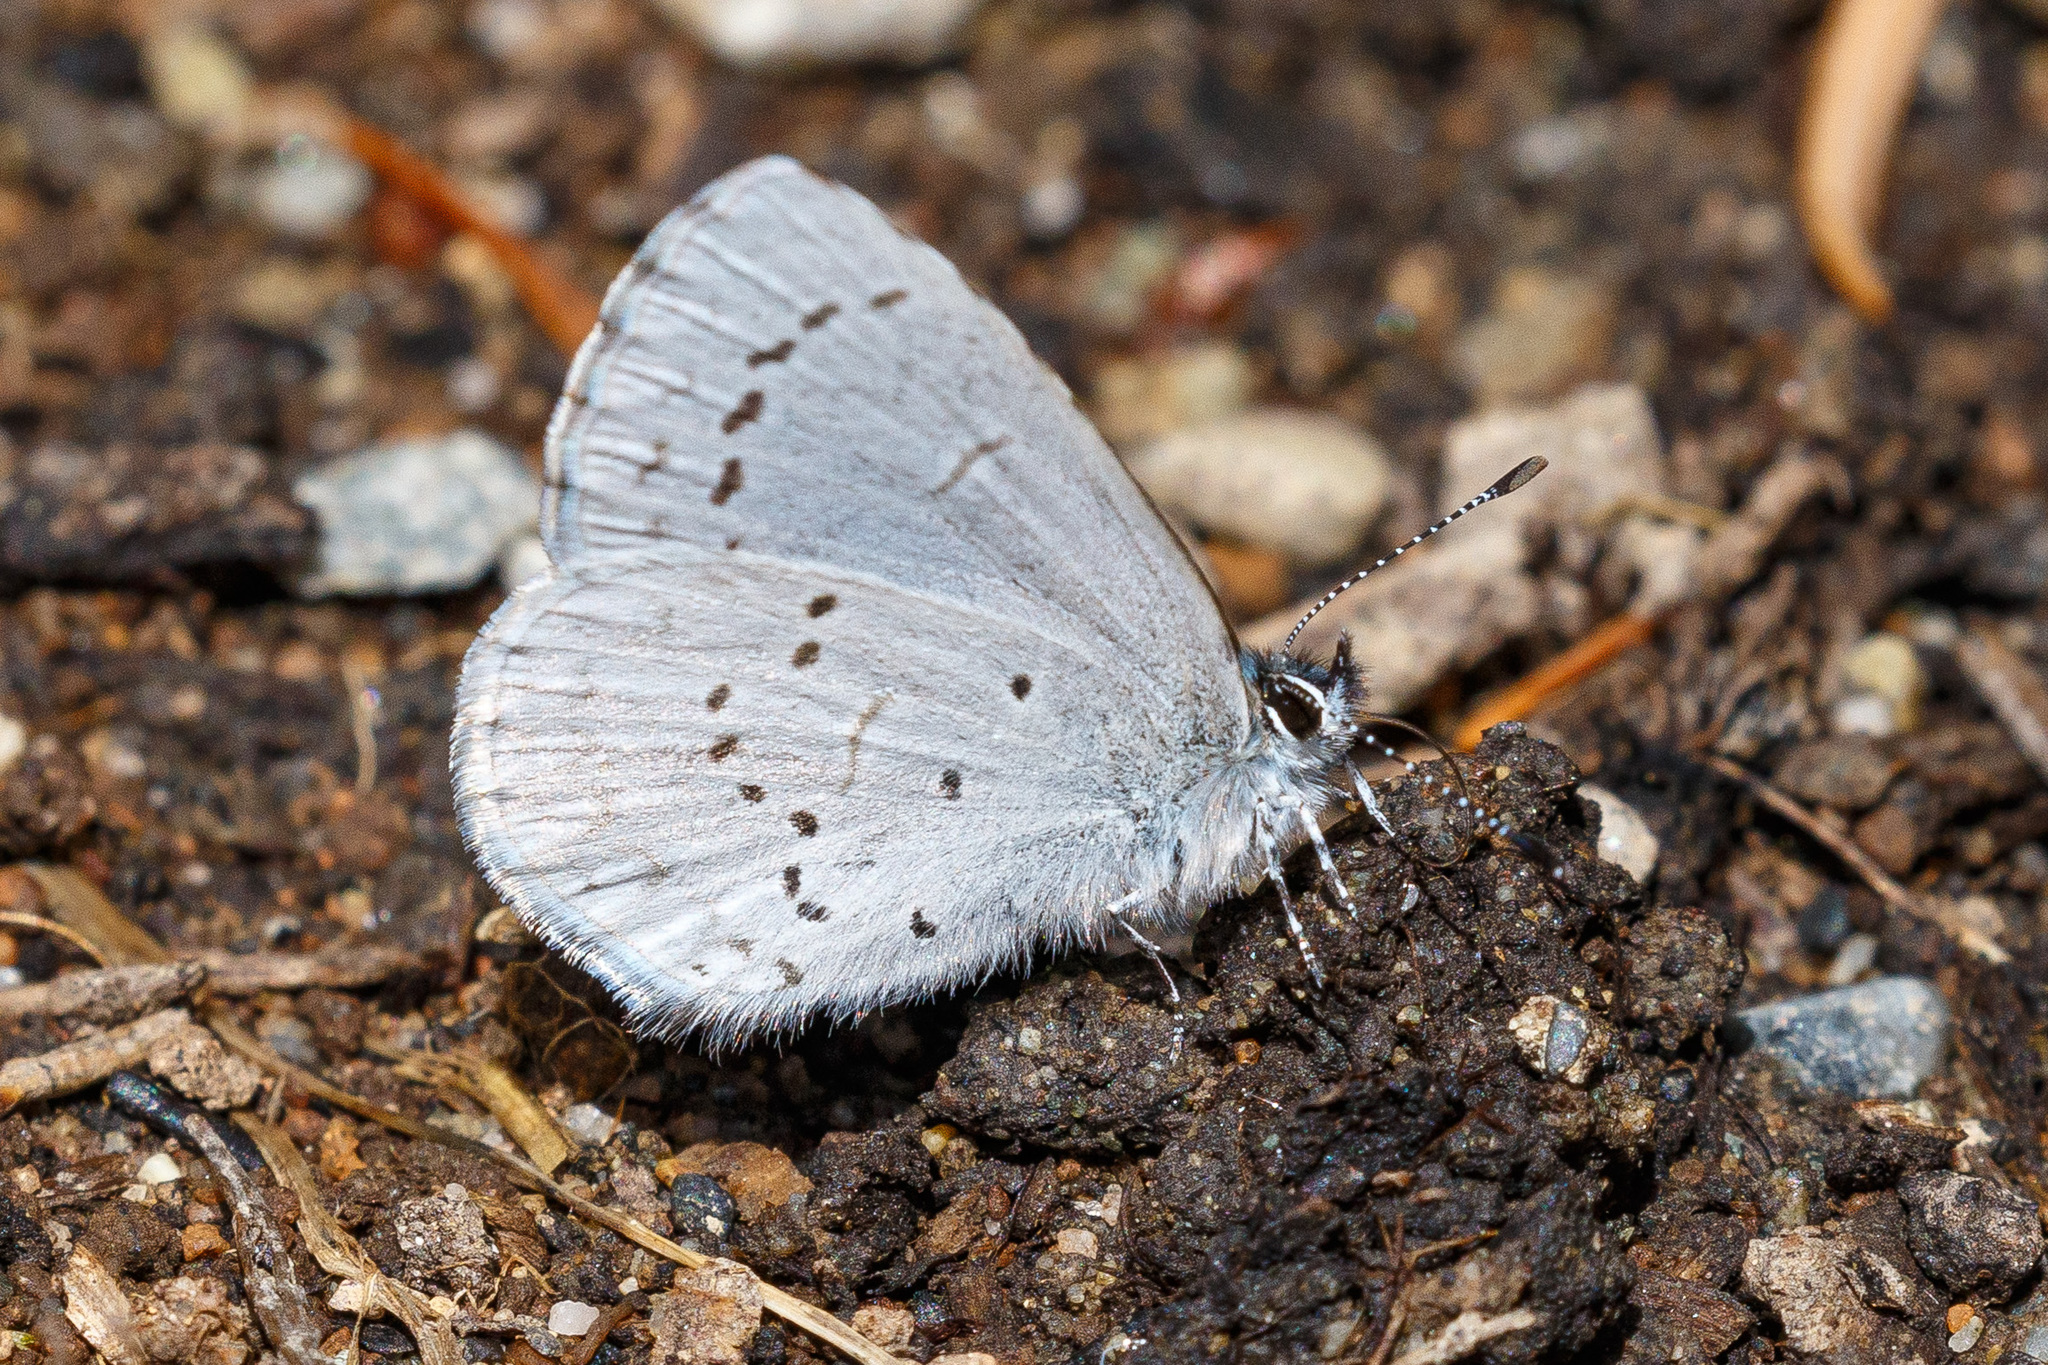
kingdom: Animalia
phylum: Arthropoda
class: Insecta
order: Lepidoptera
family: Lycaenidae
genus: Celastrina
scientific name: Celastrina ladon
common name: Spring azure
